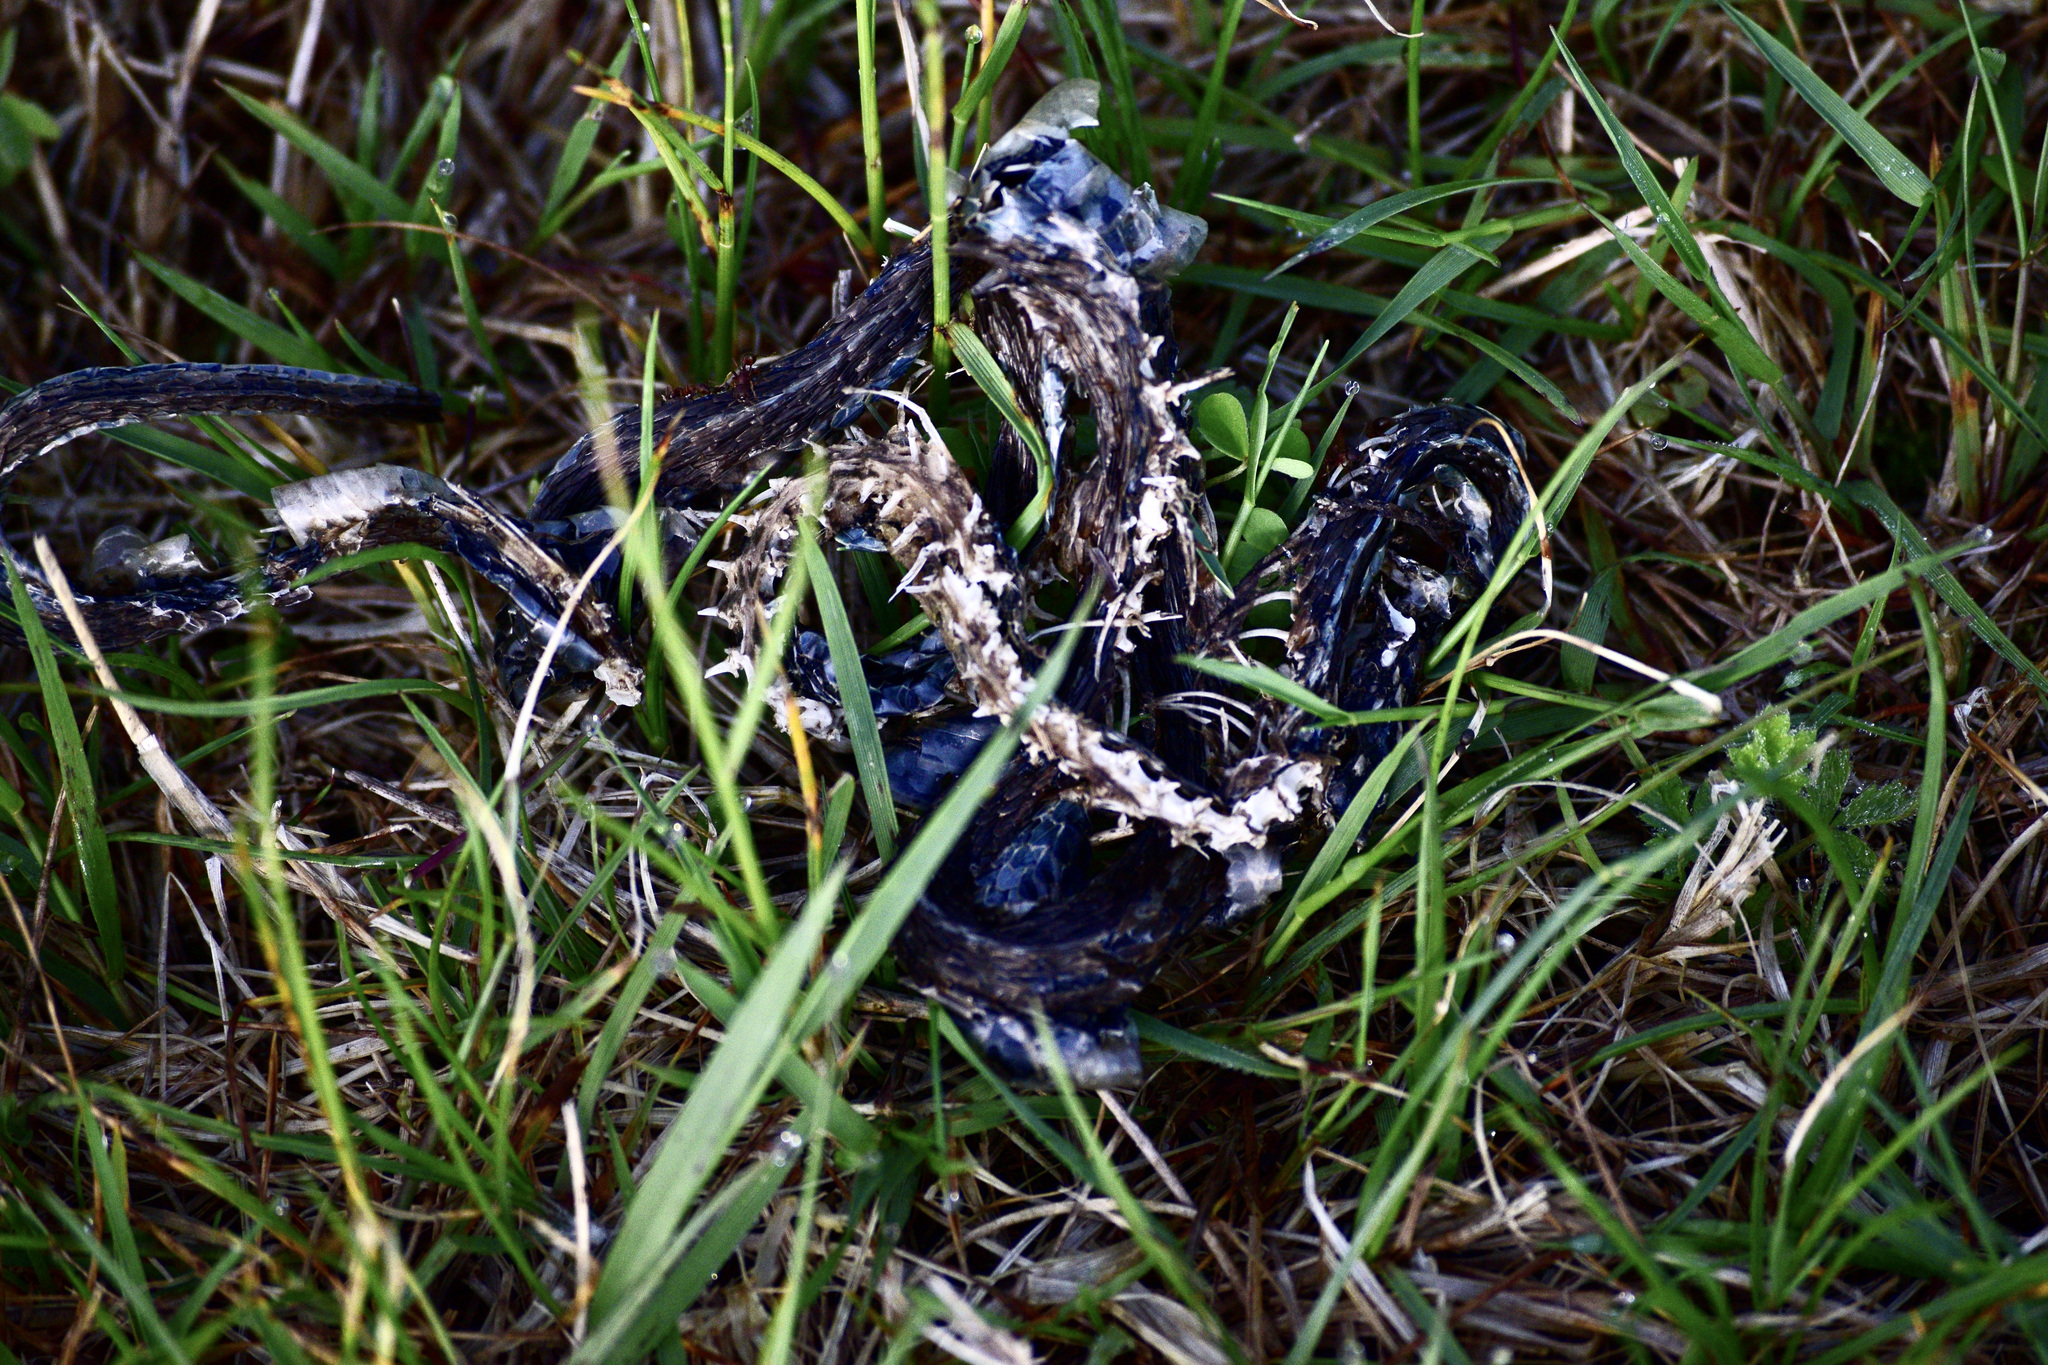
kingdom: Animalia
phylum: Chordata
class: Squamata
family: Colubridae
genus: Thamnophis
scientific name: Thamnophis sirtalis
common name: Common garter snake
